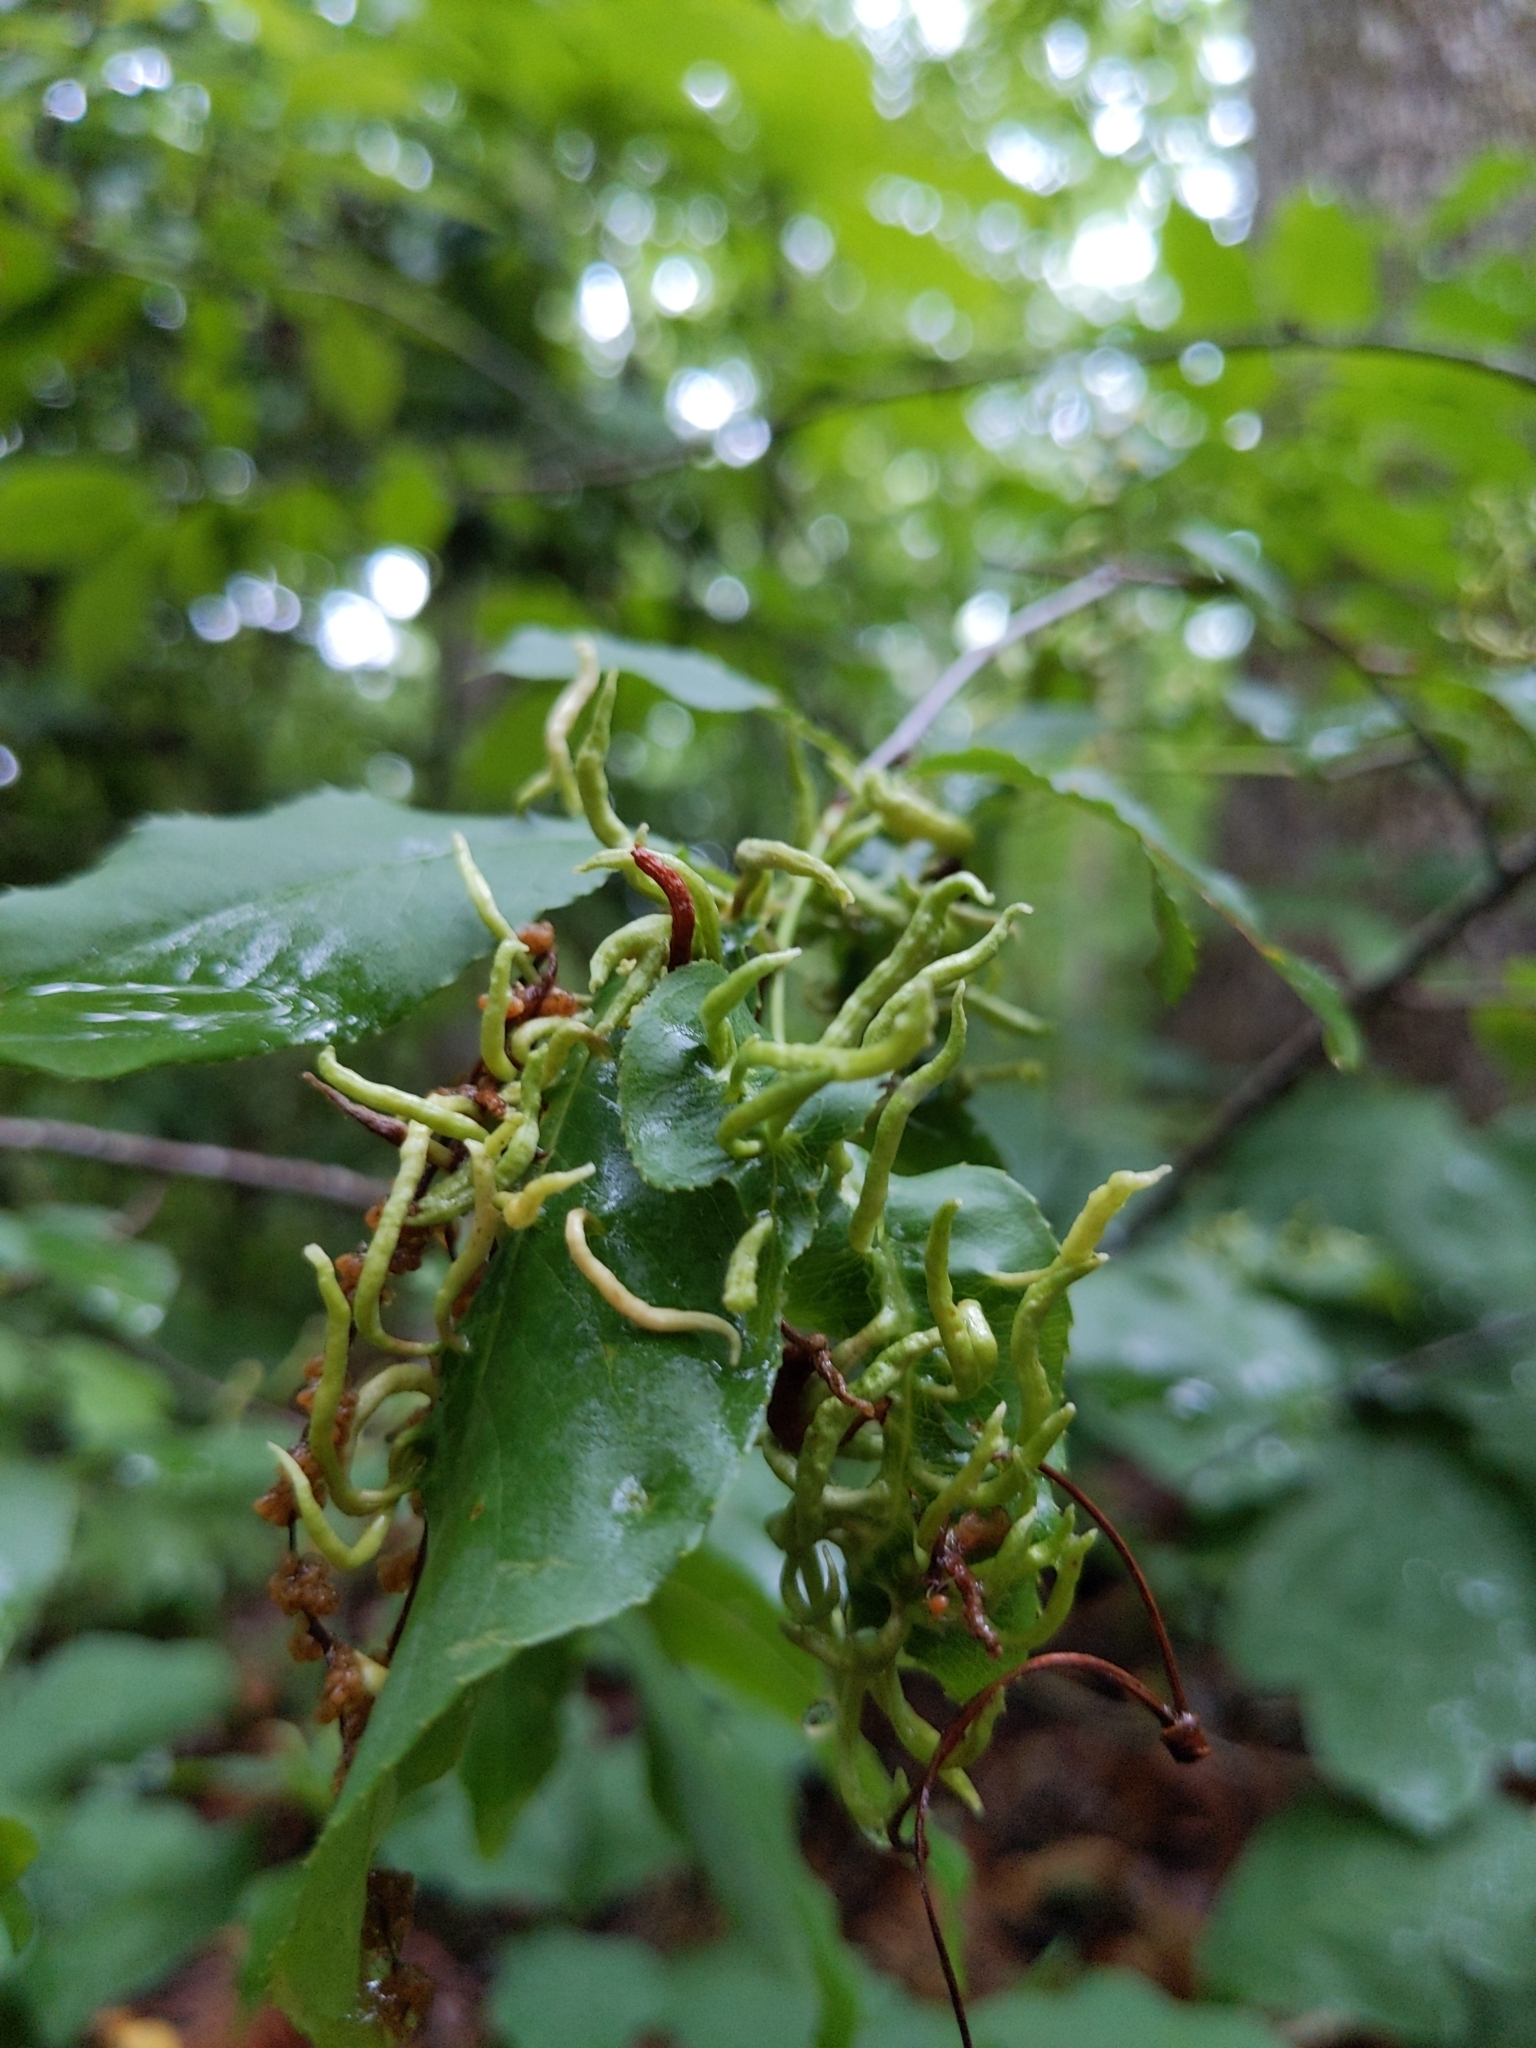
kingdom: Animalia
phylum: Arthropoda
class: Arachnida
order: Trombidiformes
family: Eriophyidae
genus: Eriophyes
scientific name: Eriophyes
